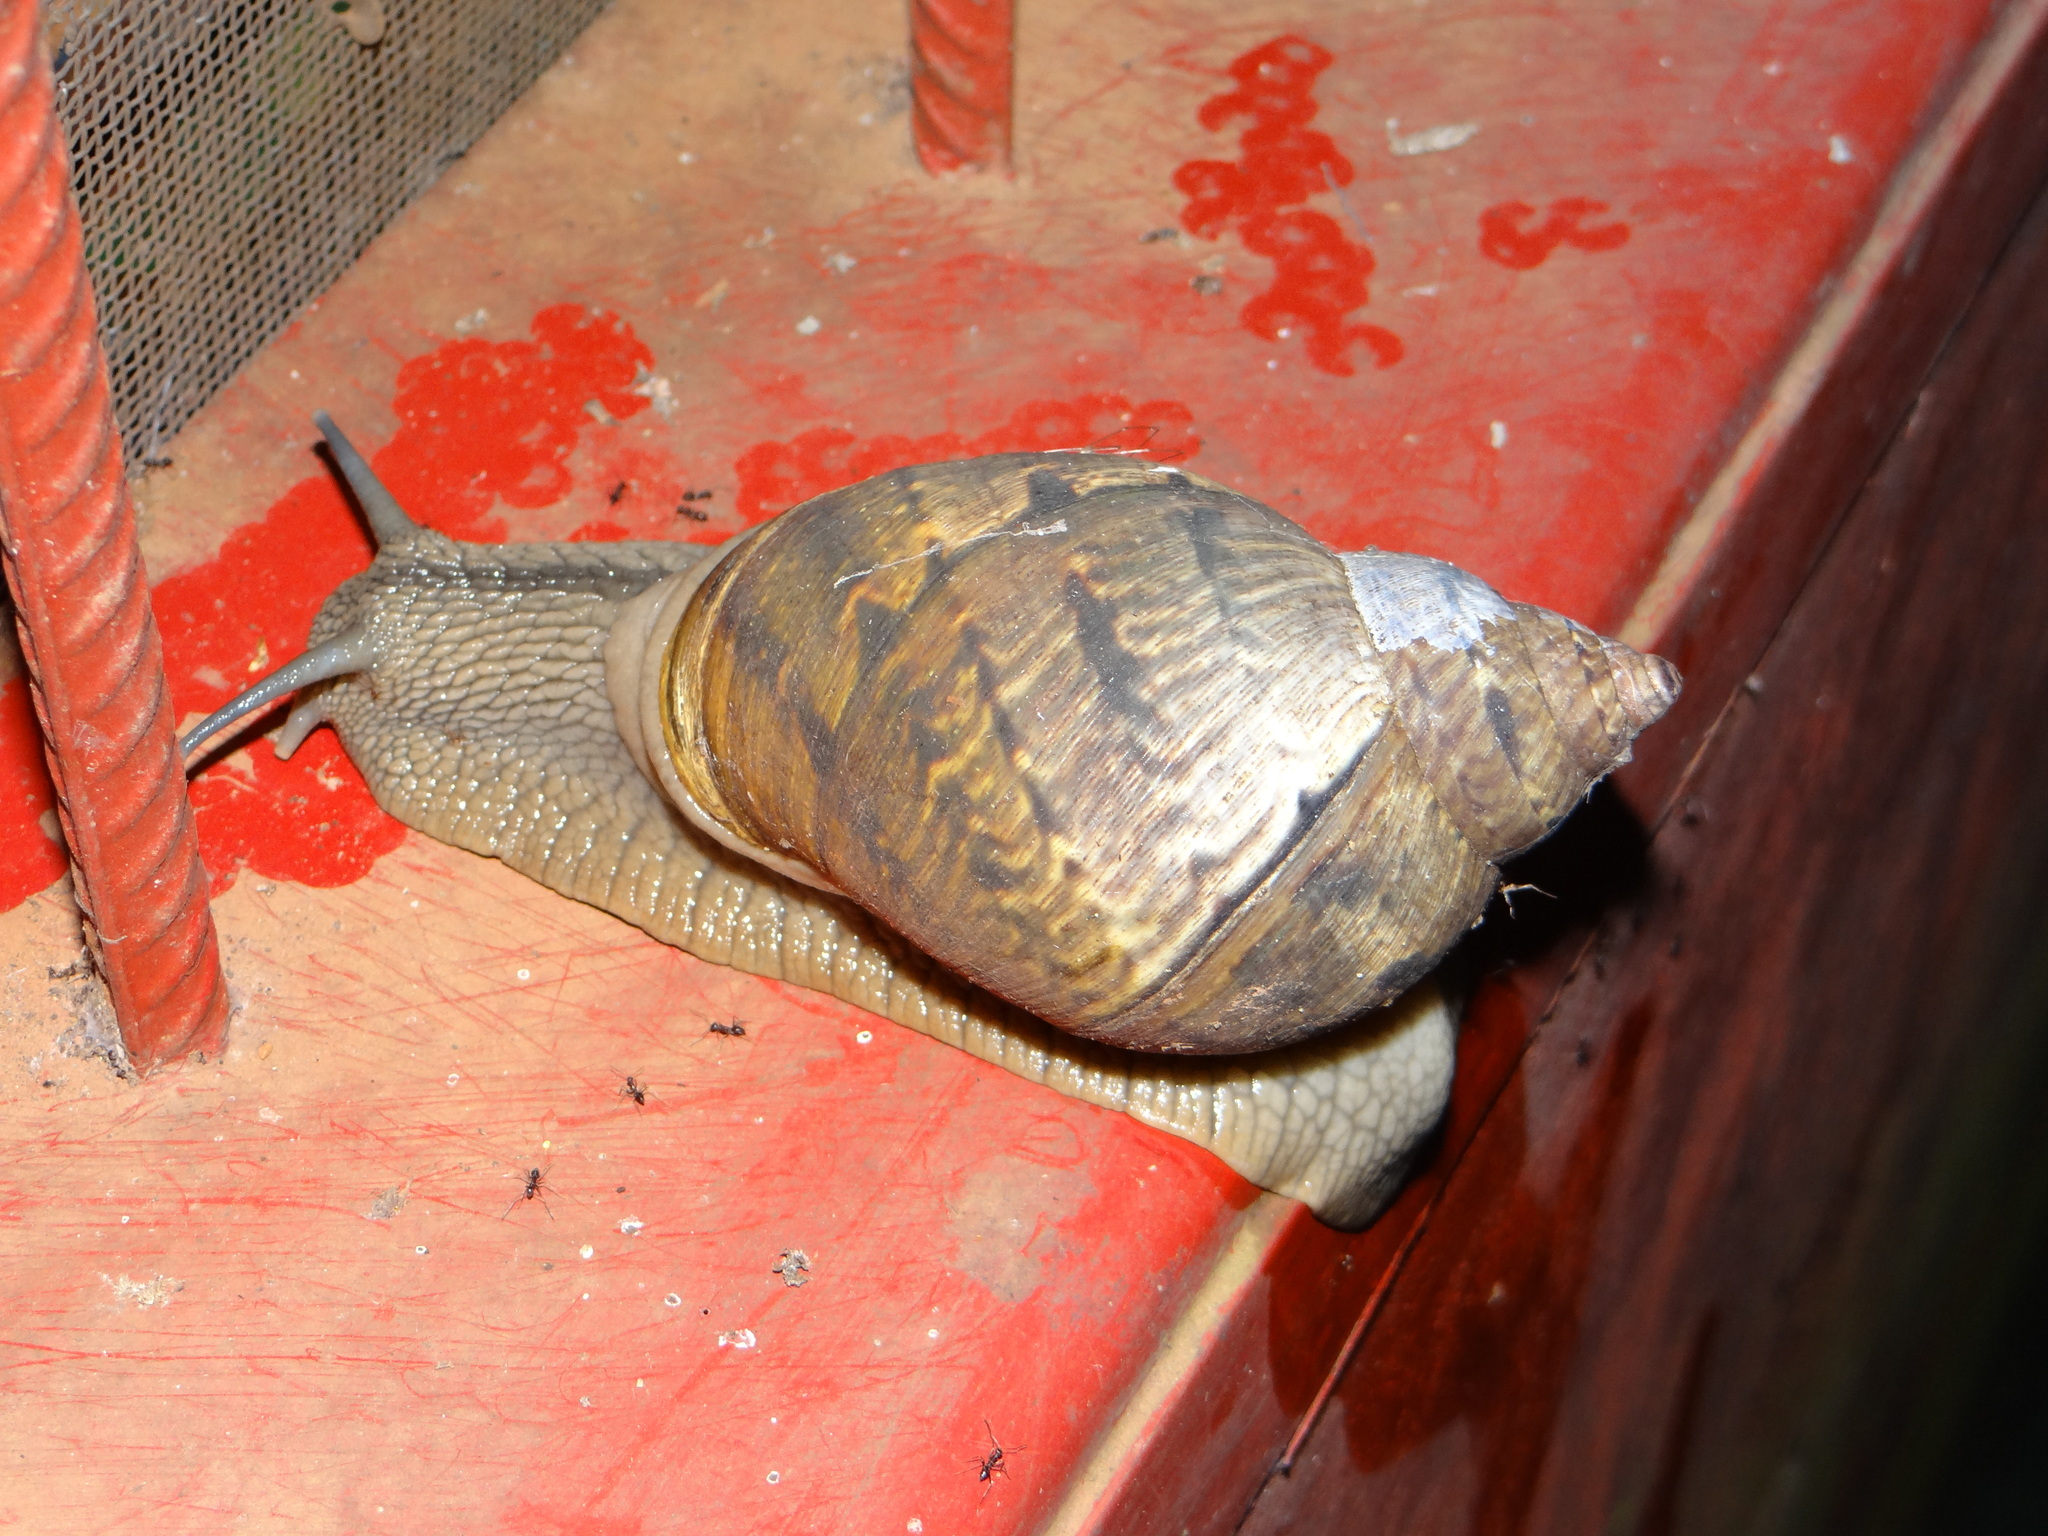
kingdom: Animalia
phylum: Mollusca
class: Gastropoda
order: Stylommatophora
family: Orthalicidae
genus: Sultana
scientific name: Sultana sultana
